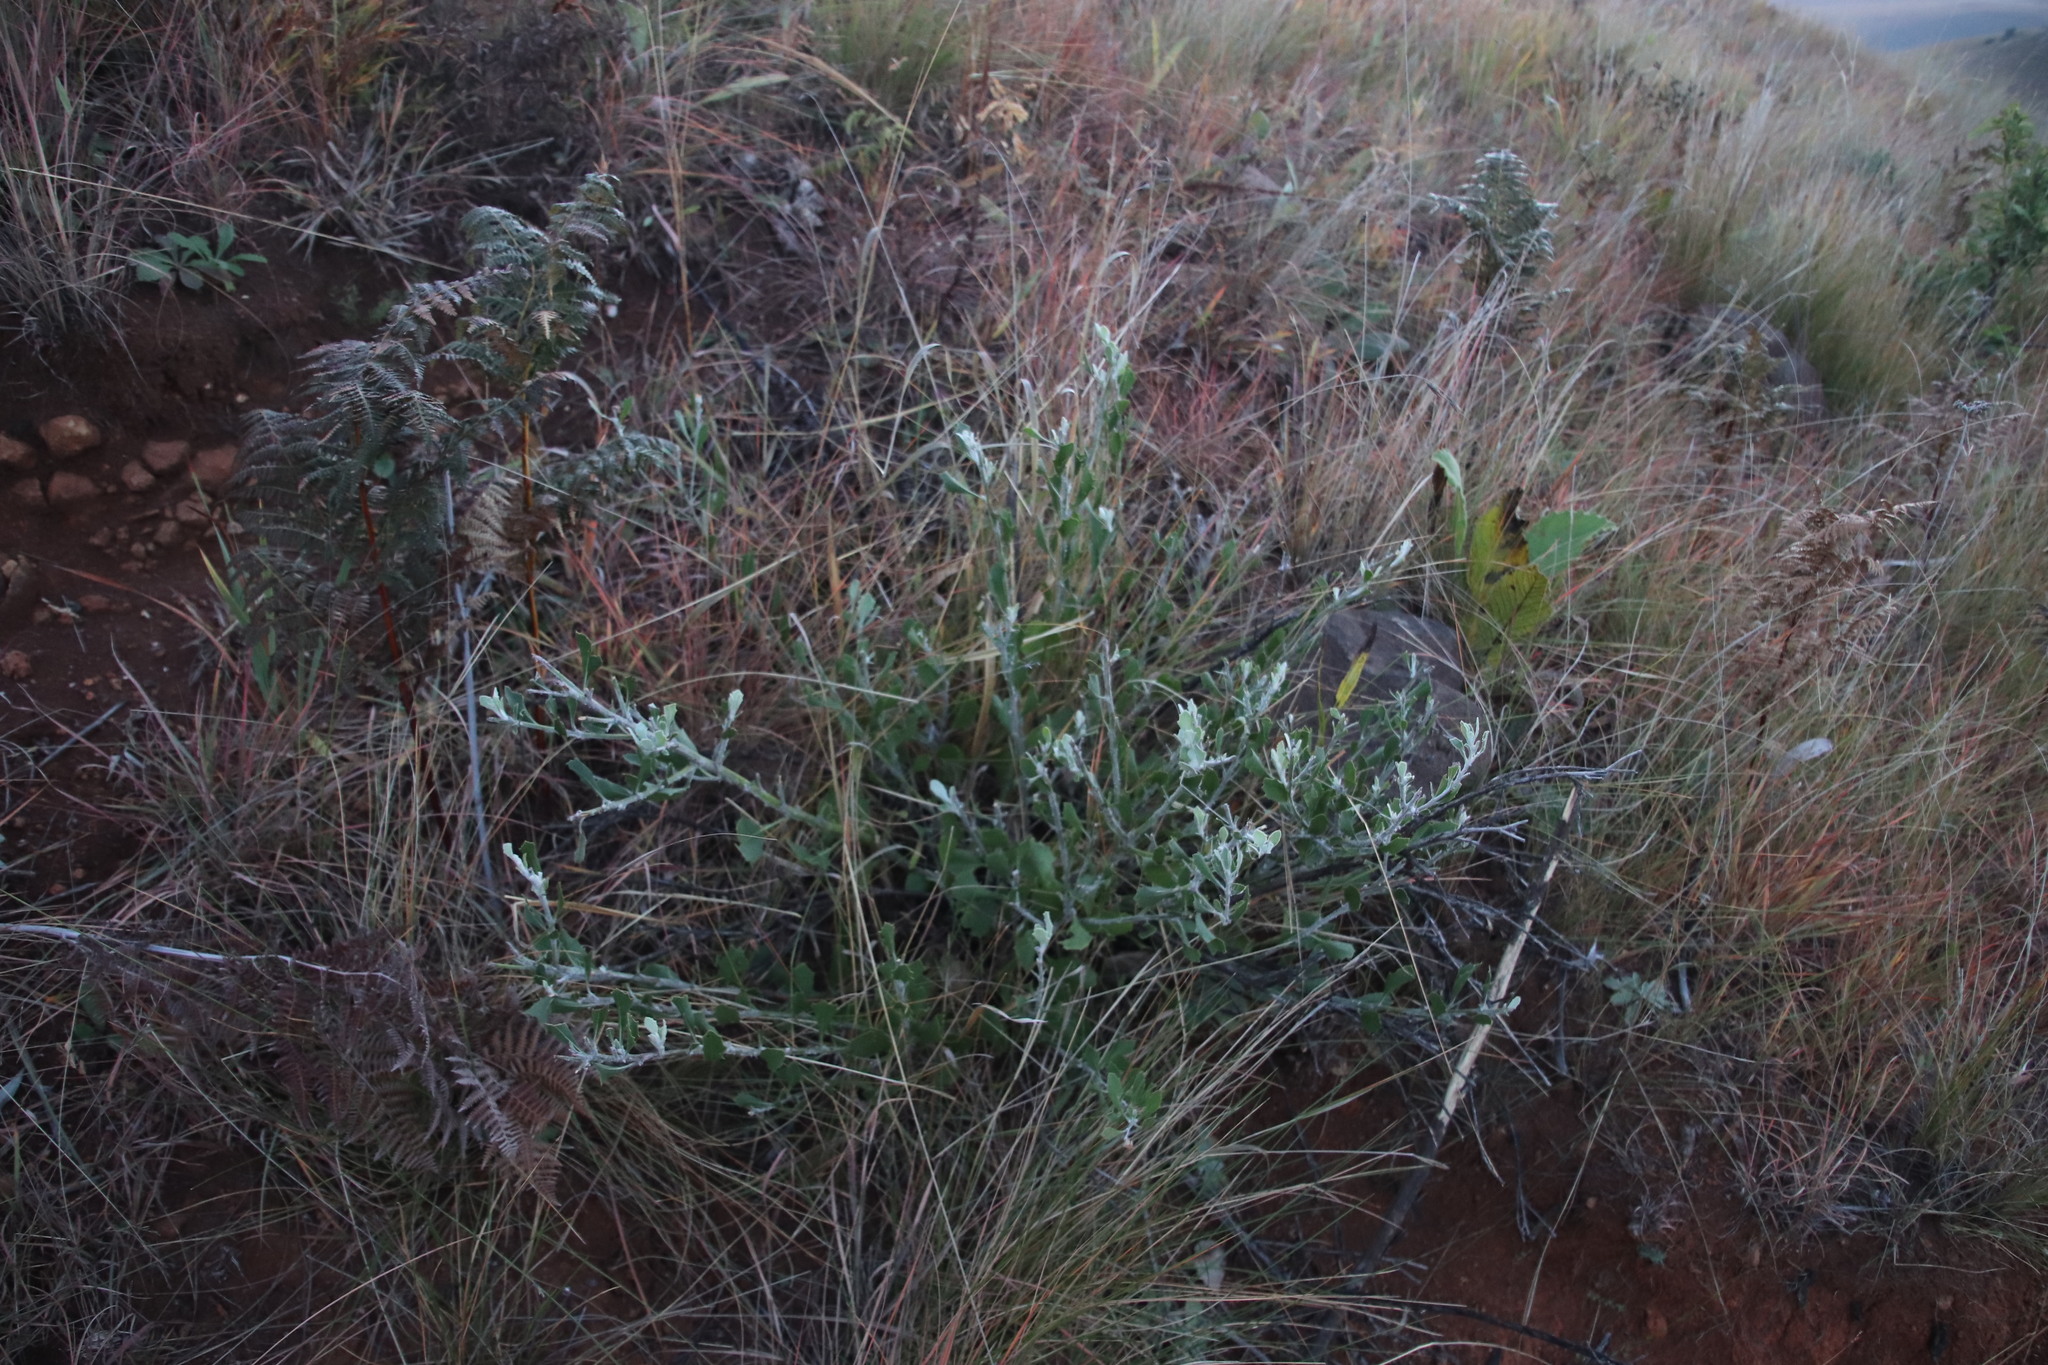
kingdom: Plantae
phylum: Tracheophyta
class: Magnoliopsida
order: Asterales
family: Asteraceae
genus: Osteospermum
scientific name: Osteospermum moniliferum
